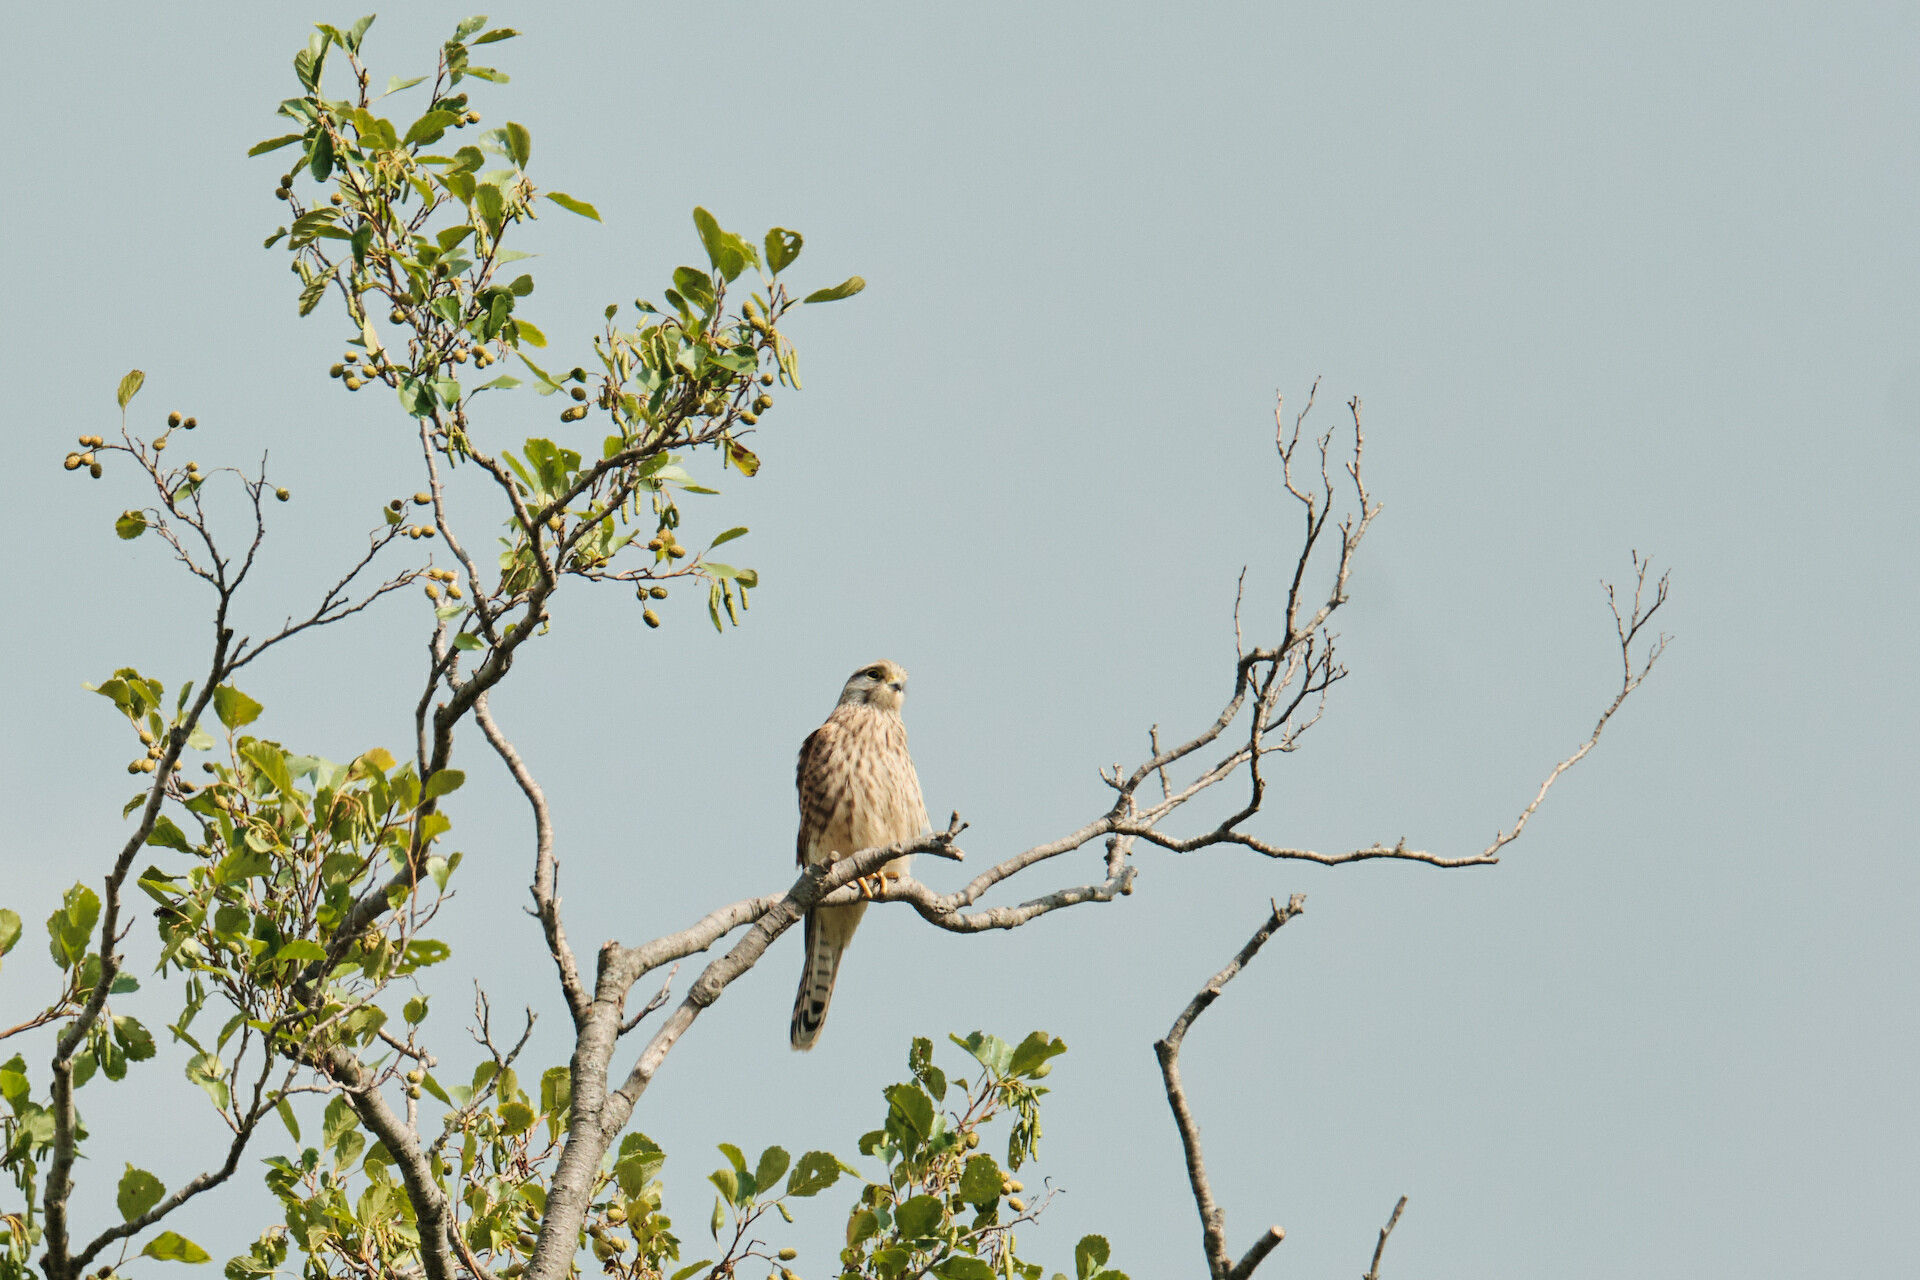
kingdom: Animalia
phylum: Chordata
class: Aves
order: Falconiformes
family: Falconidae
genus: Falco
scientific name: Falco tinnunculus
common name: Common kestrel
